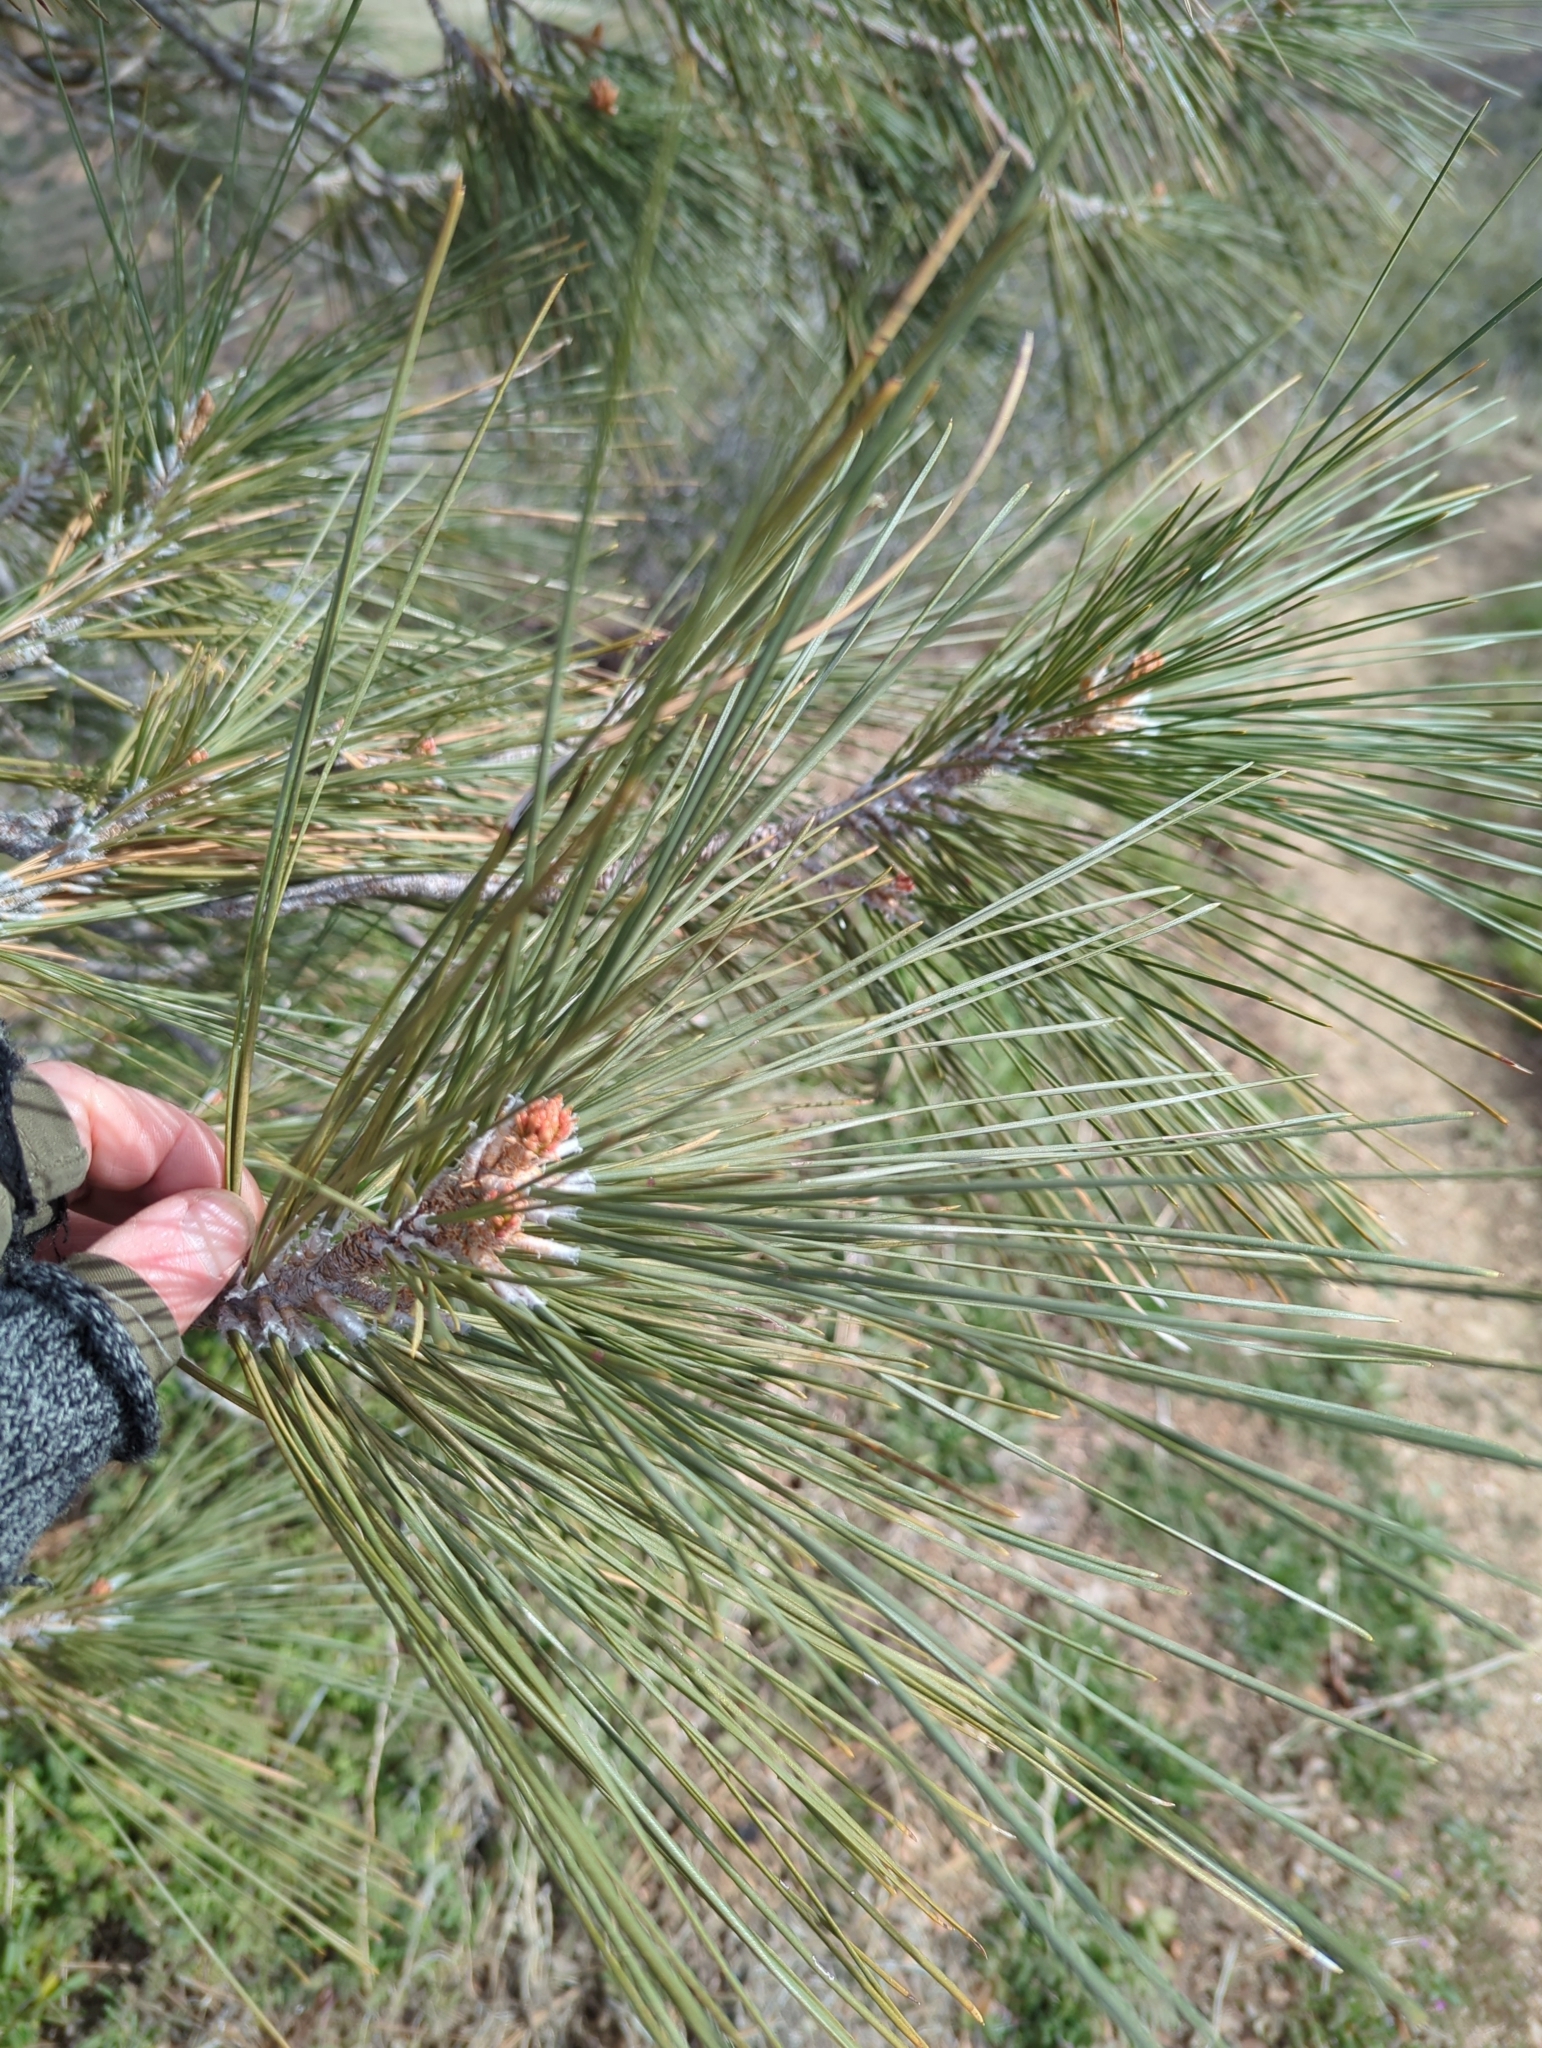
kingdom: Plantae
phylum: Tracheophyta
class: Pinopsida
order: Pinales
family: Pinaceae
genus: Pinus
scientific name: Pinus coulteri
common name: Coulter pine
